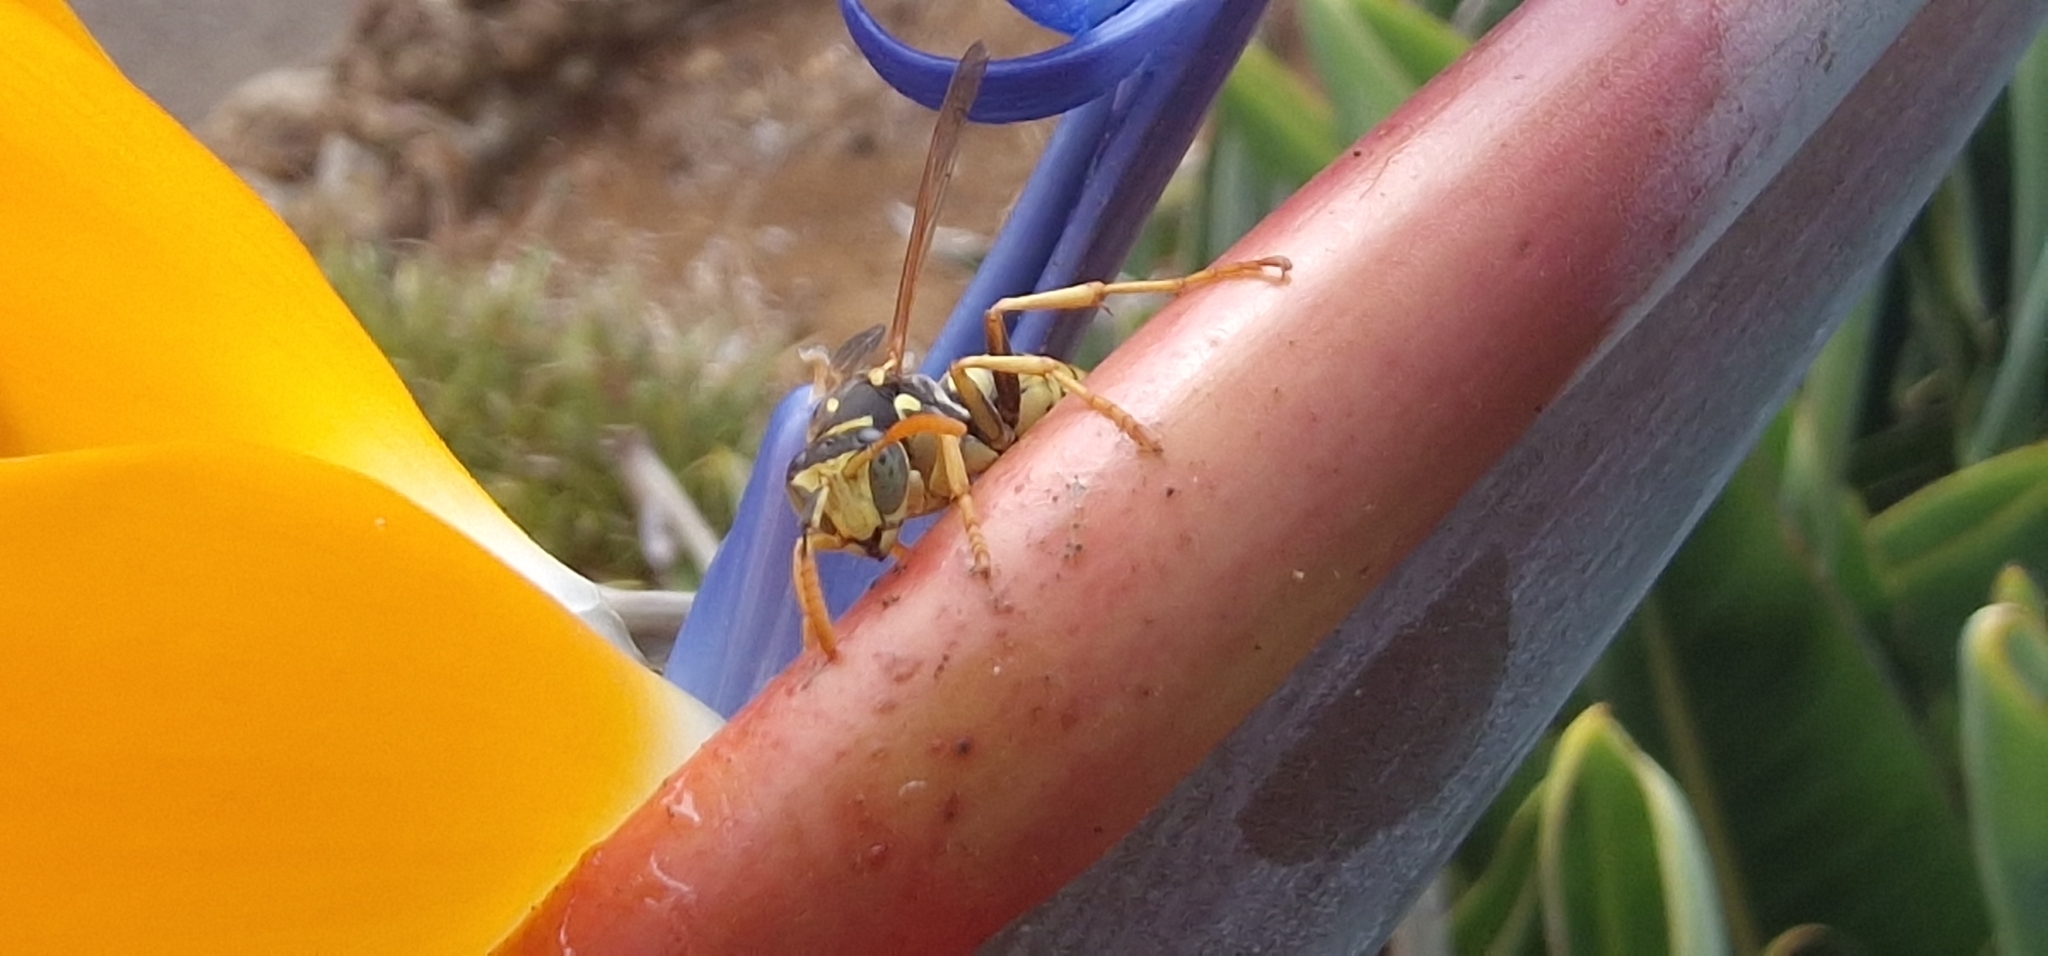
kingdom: Animalia
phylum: Arthropoda
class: Insecta
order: Hymenoptera
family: Eumenidae
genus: Polistes
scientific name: Polistes dominula
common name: Paper wasp
